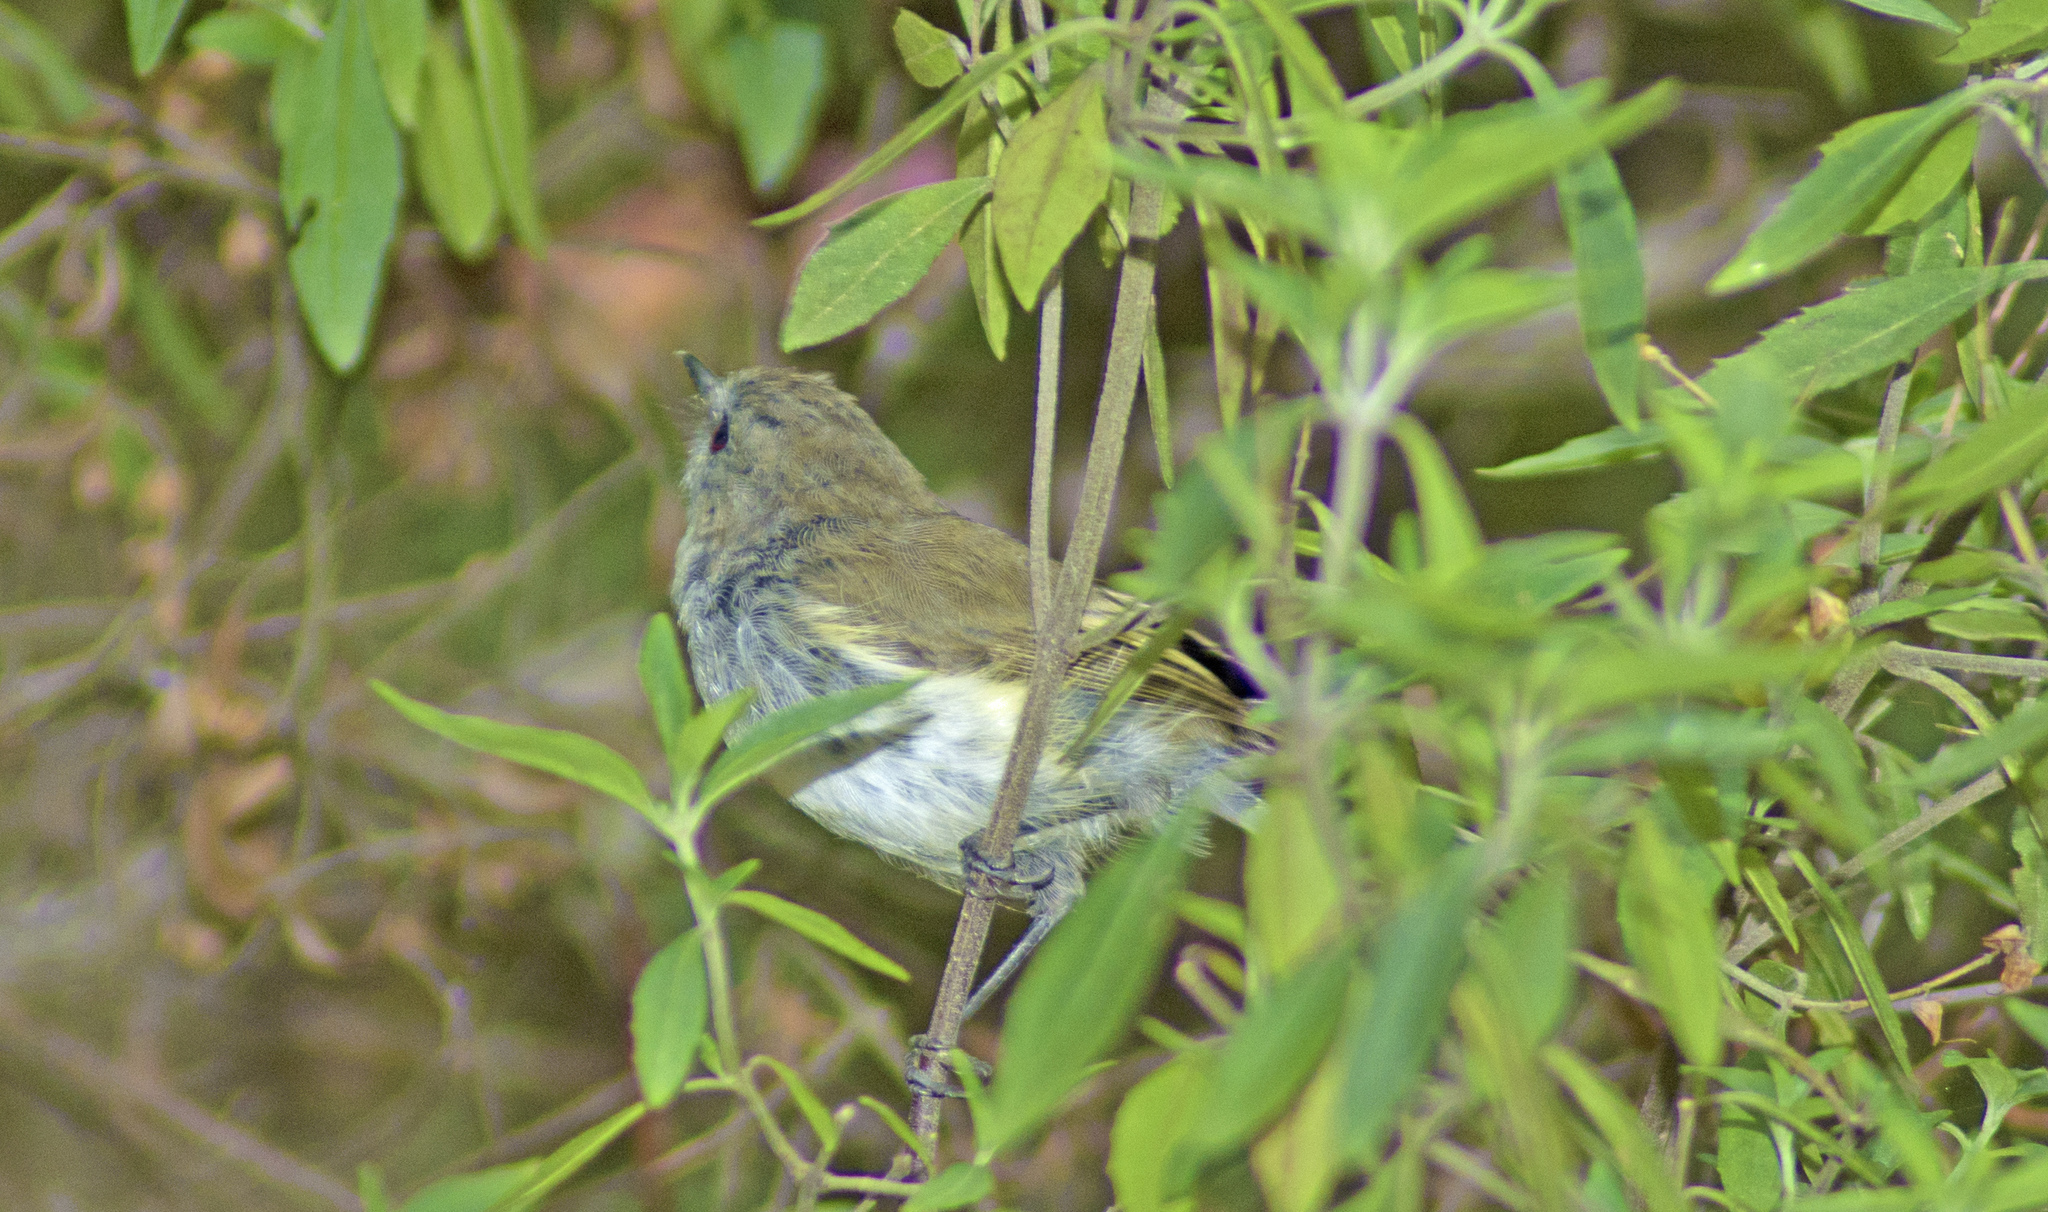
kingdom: Animalia
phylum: Chordata
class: Aves
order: Passeriformes
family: Acanthizidae
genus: Gerygone
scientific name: Gerygone igata
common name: Grey gerygone
